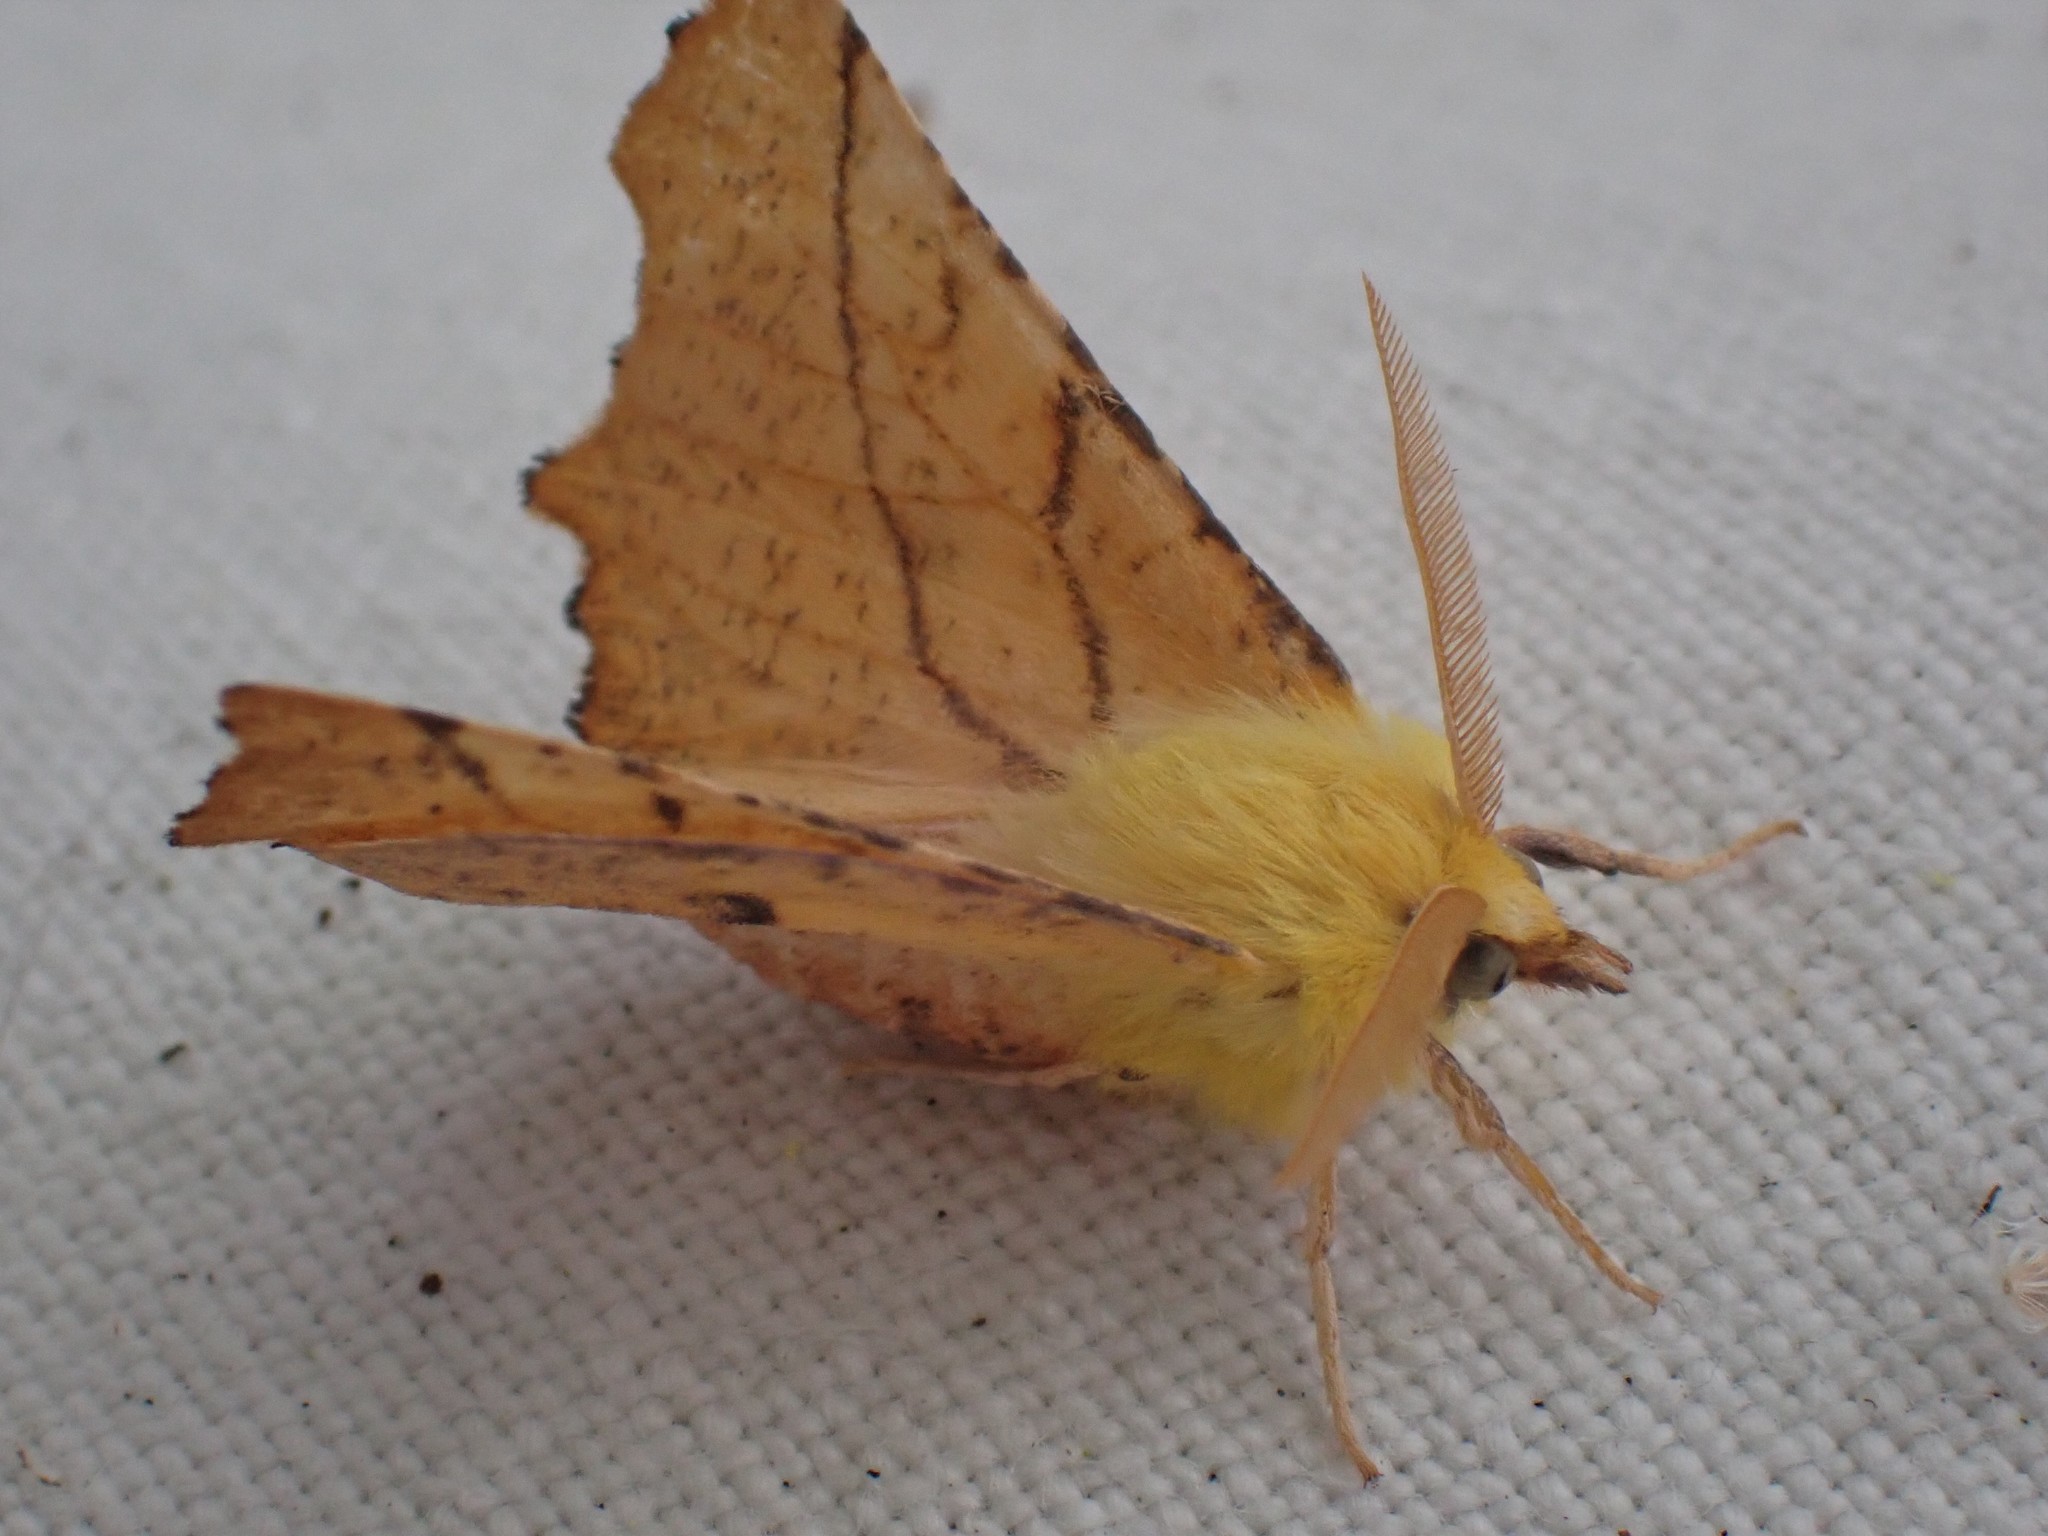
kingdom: Animalia
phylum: Arthropoda
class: Insecta
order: Lepidoptera
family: Geometridae
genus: Ennomos
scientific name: Ennomos alniaria
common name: Canary-shouldered thorn
